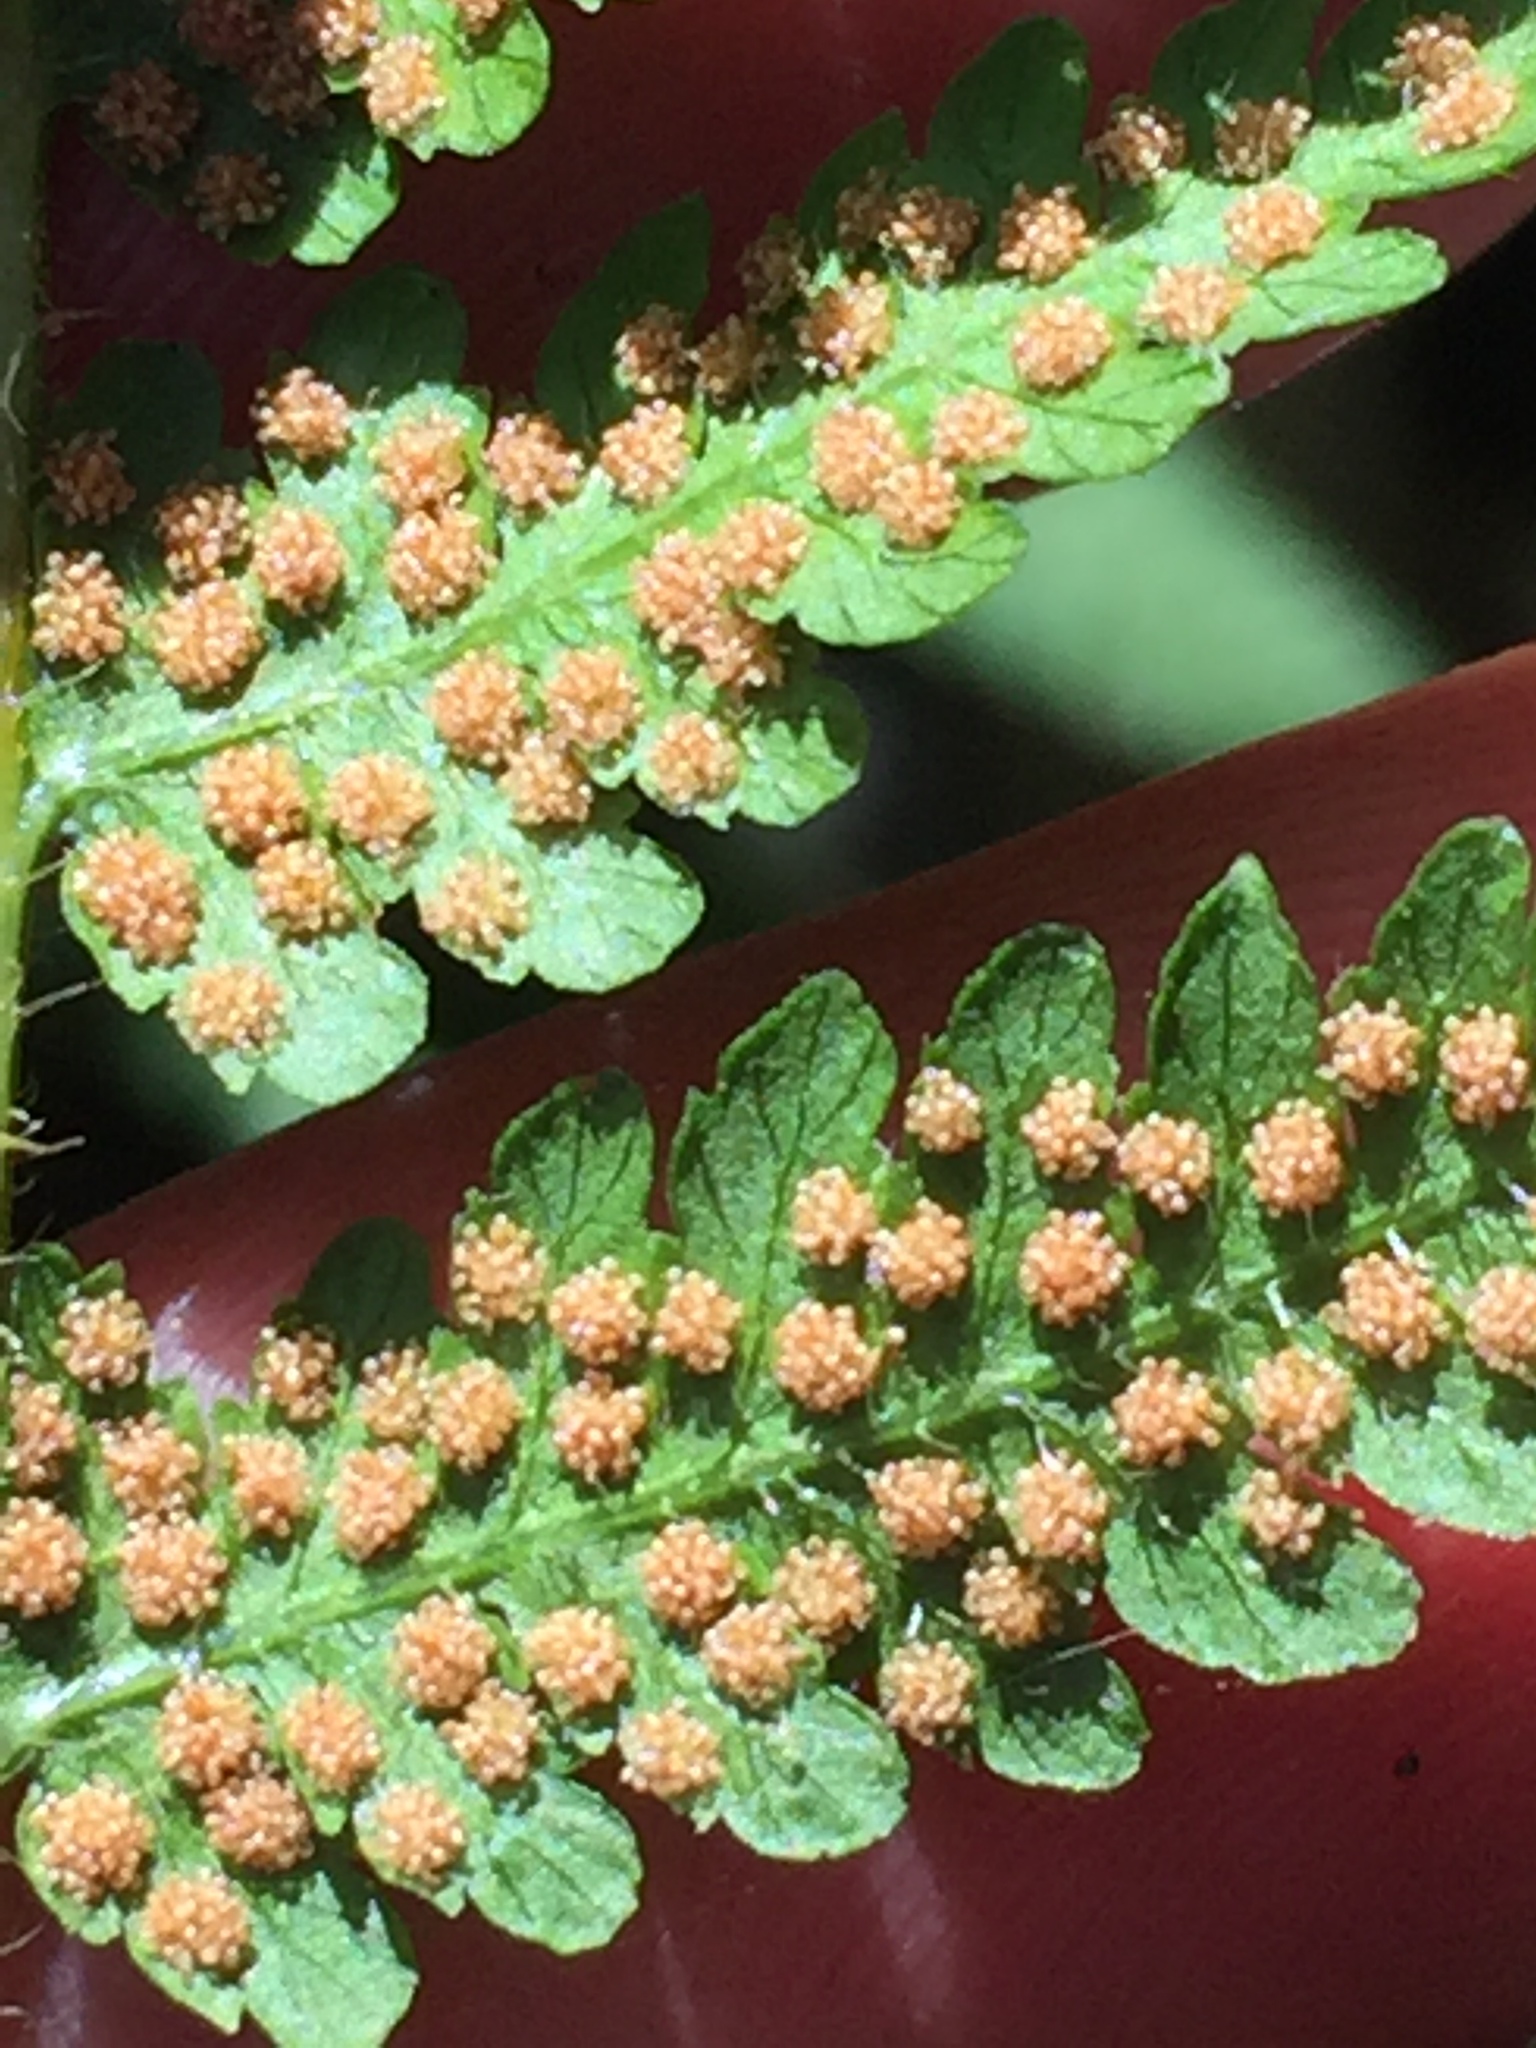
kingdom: Plantae
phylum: Tracheophyta
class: Polypodiopsida
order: Polypodiales
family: Dennstaedtiaceae
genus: Hypolepis
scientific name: Hypolepis ambigua
